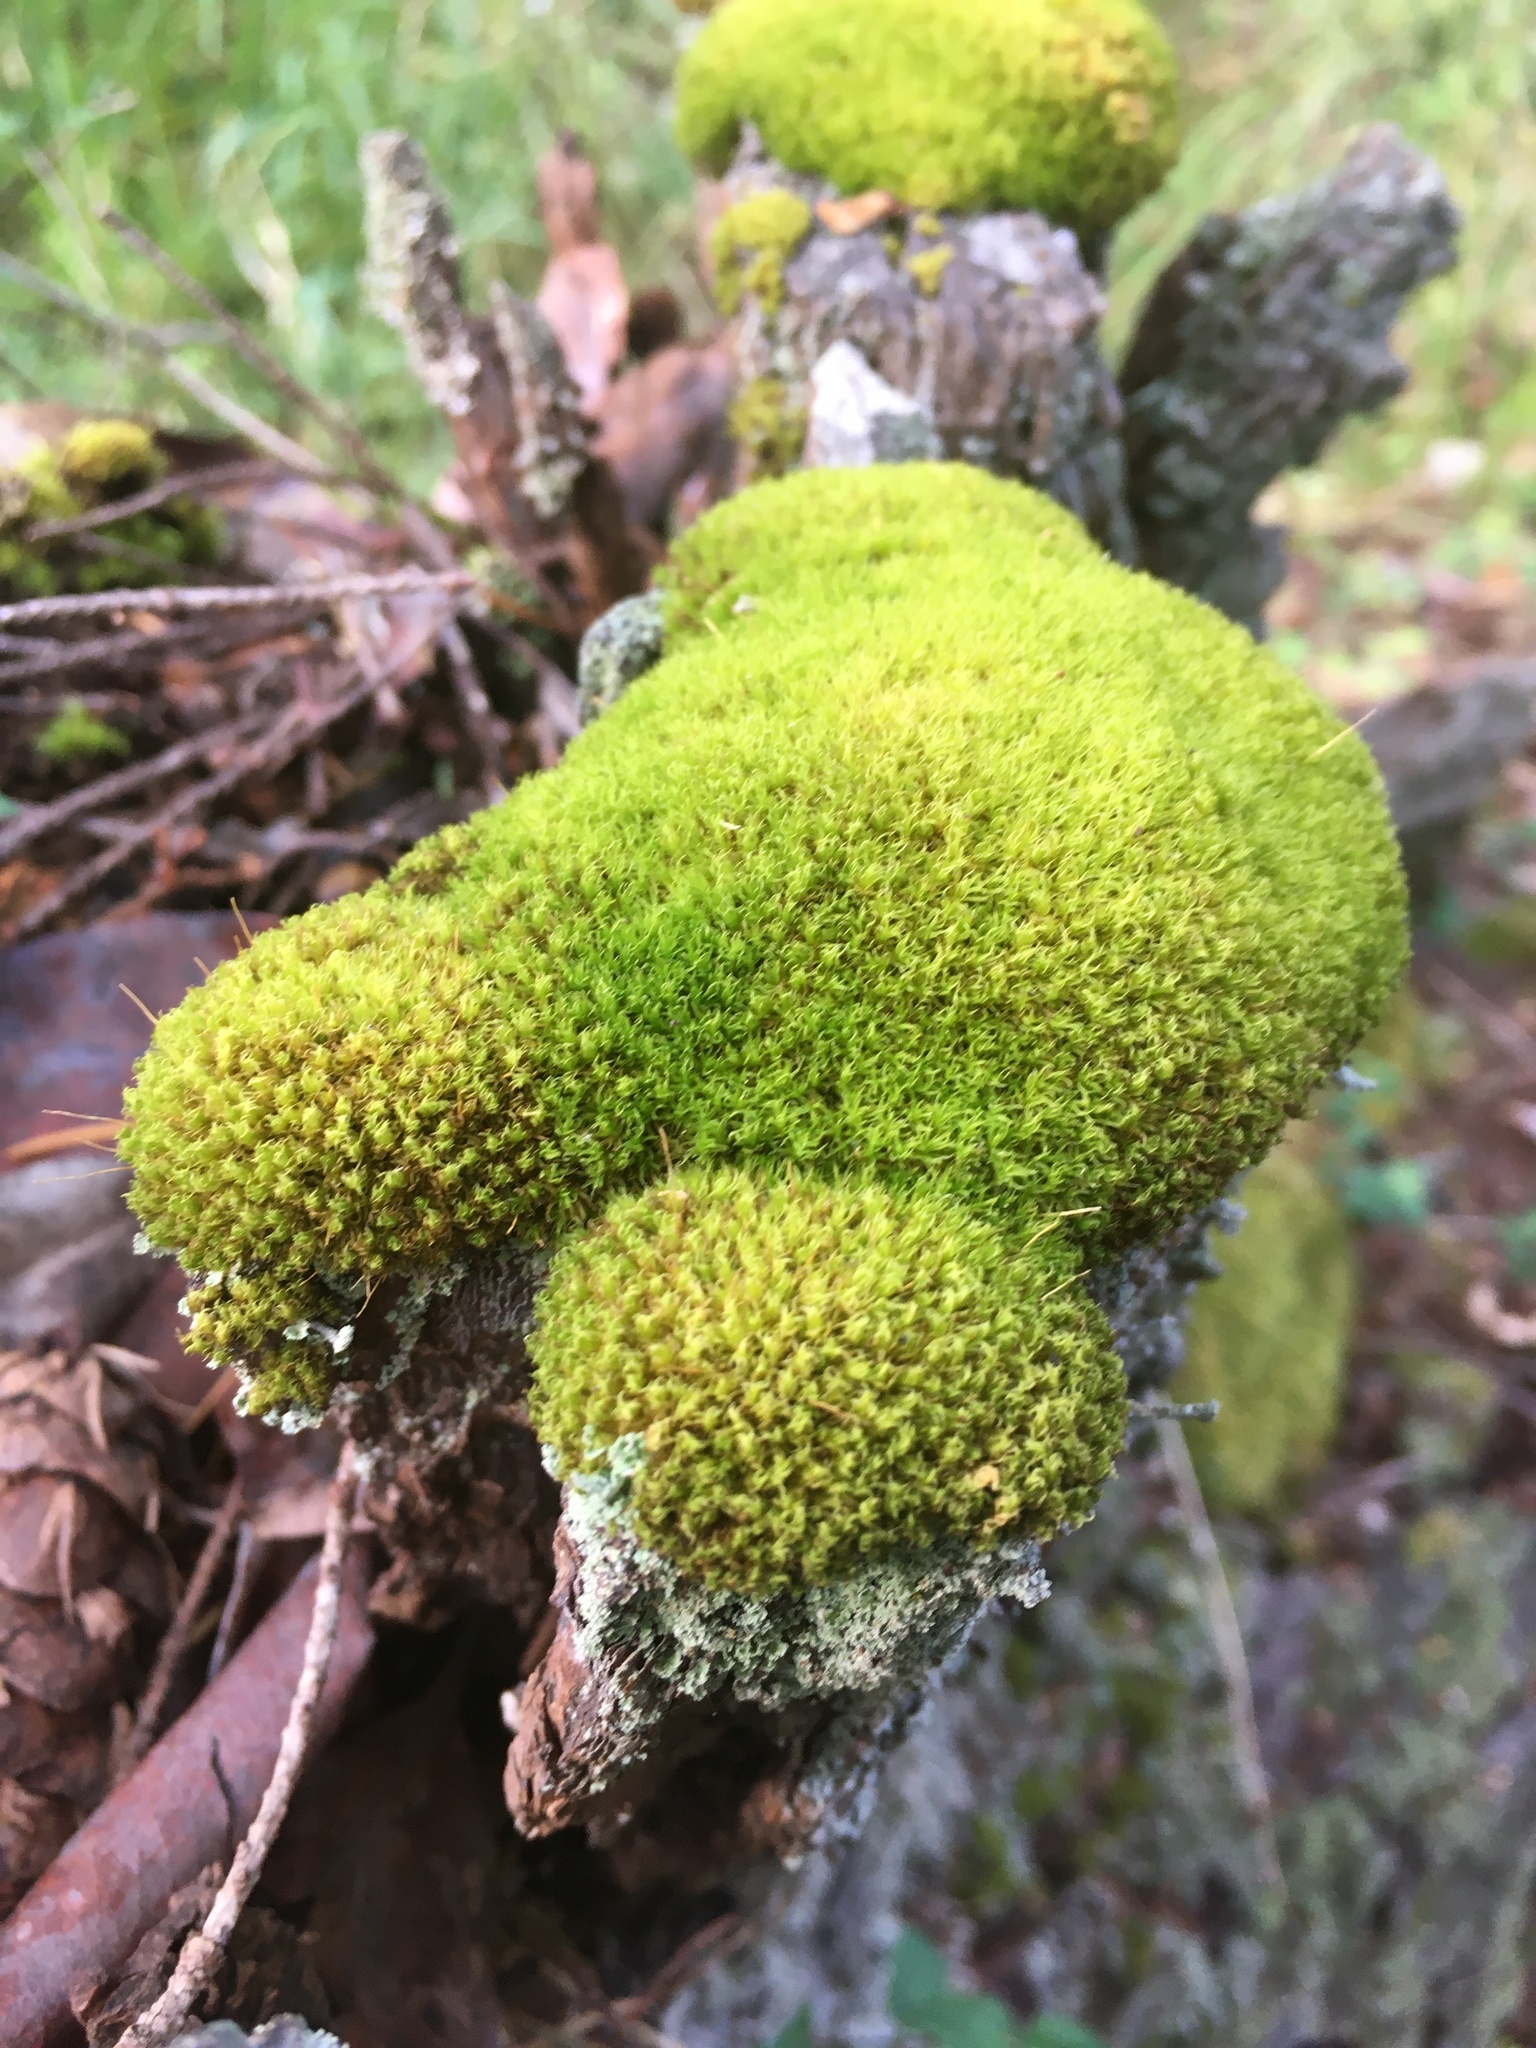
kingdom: Plantae
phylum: Bryophyta
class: Bryopsida
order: Dicranales
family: Rhabdoweisiaceae
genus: Dicranoweisia
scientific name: Dicranoweisia cirrata
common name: Common pincushion
